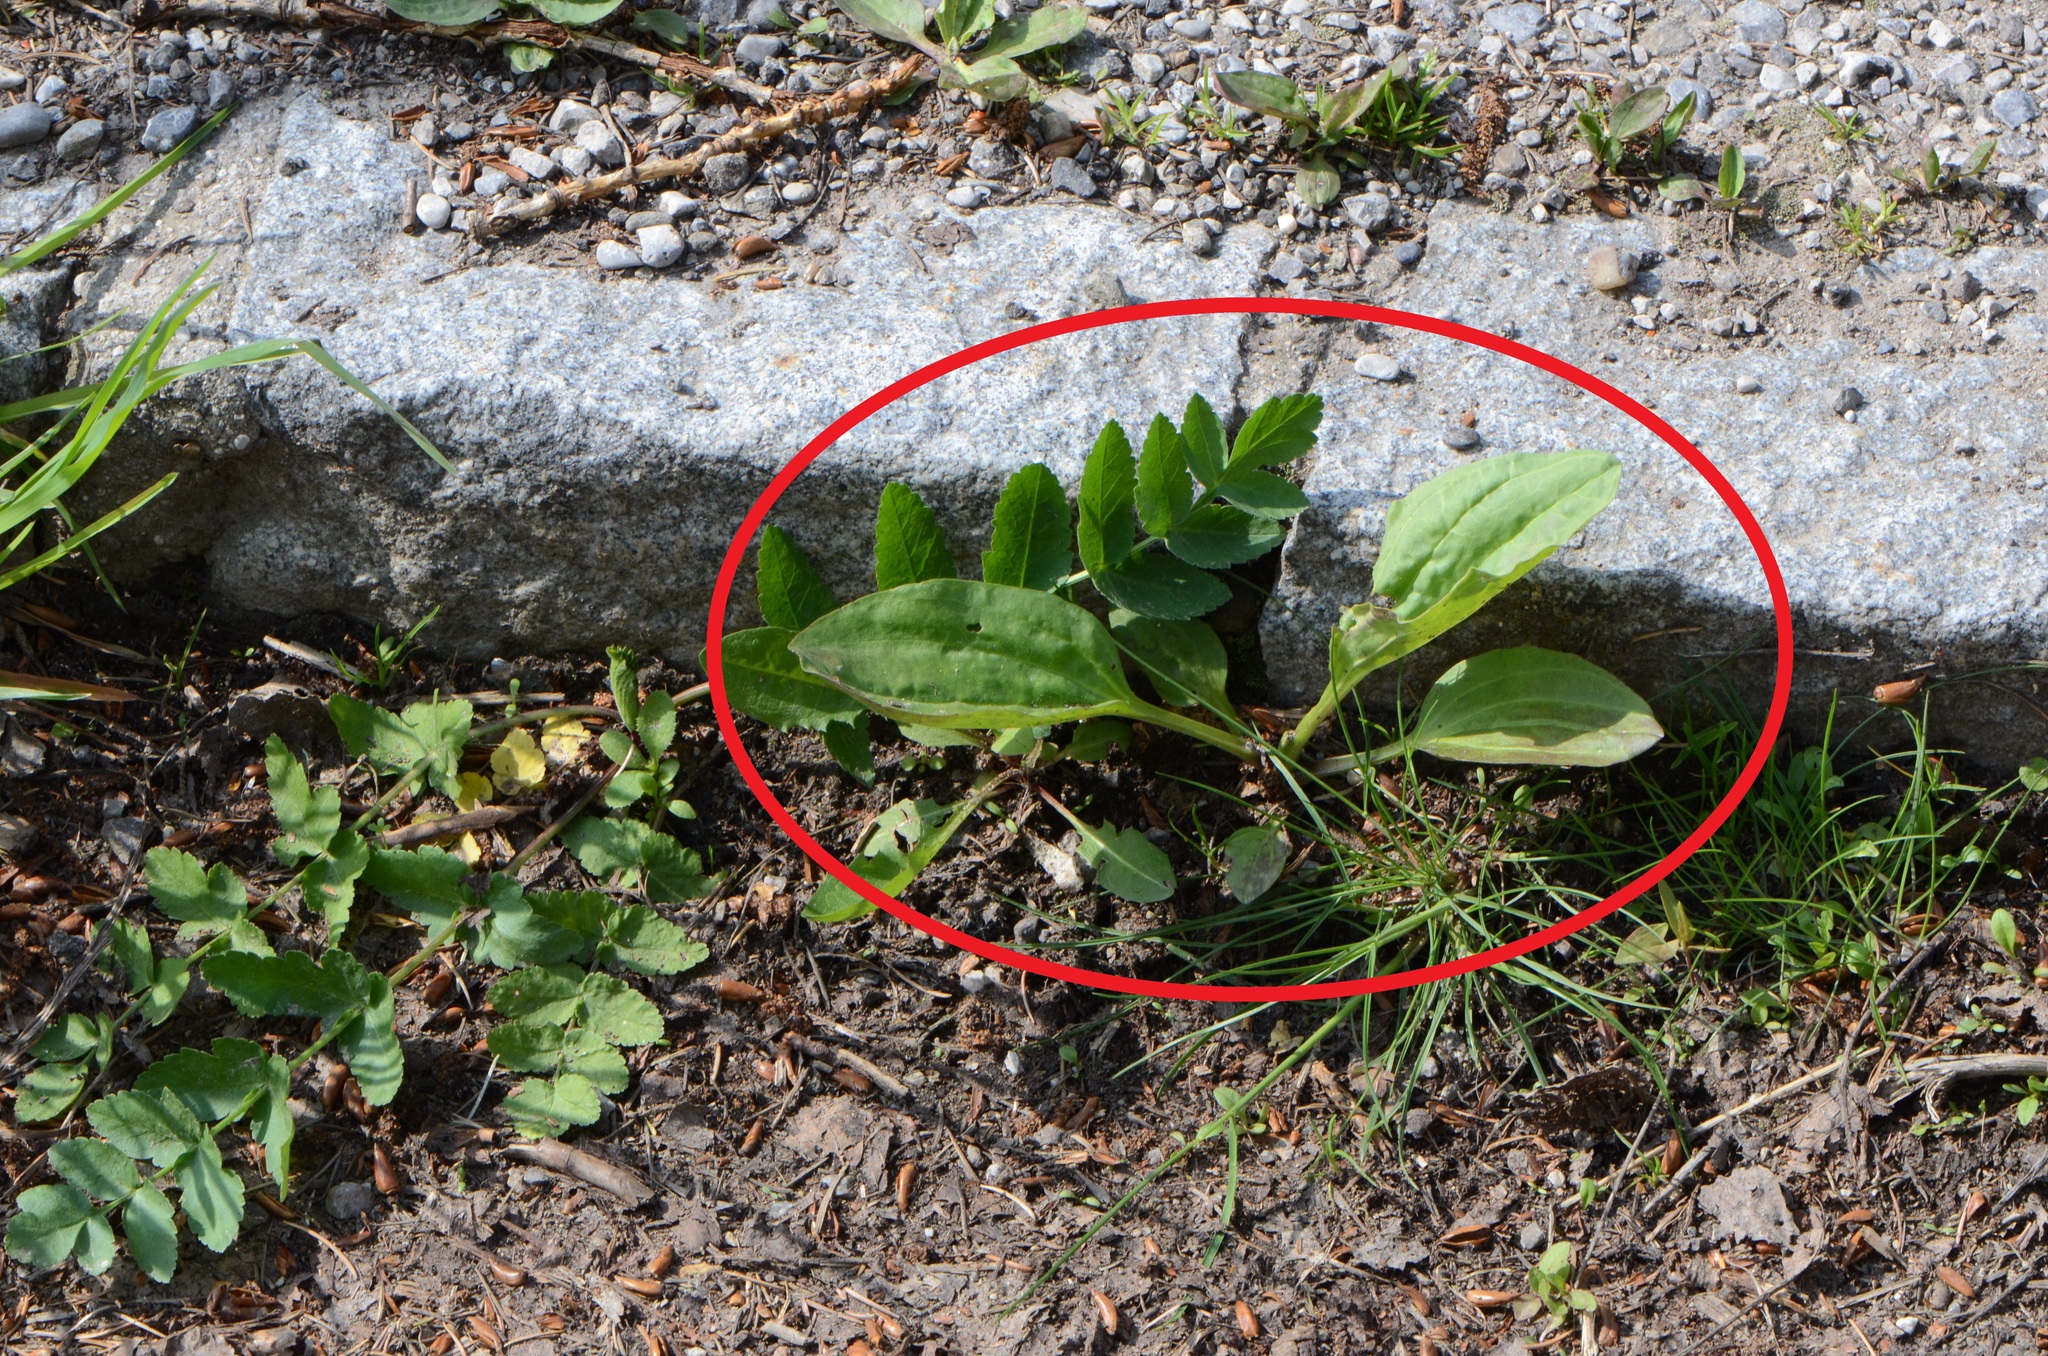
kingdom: Plantae
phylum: Tracheophyta
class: Magnoliopsida
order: Lamiales
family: Plantaginaceae
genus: Plantago
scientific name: Plantago major
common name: Common plantain
